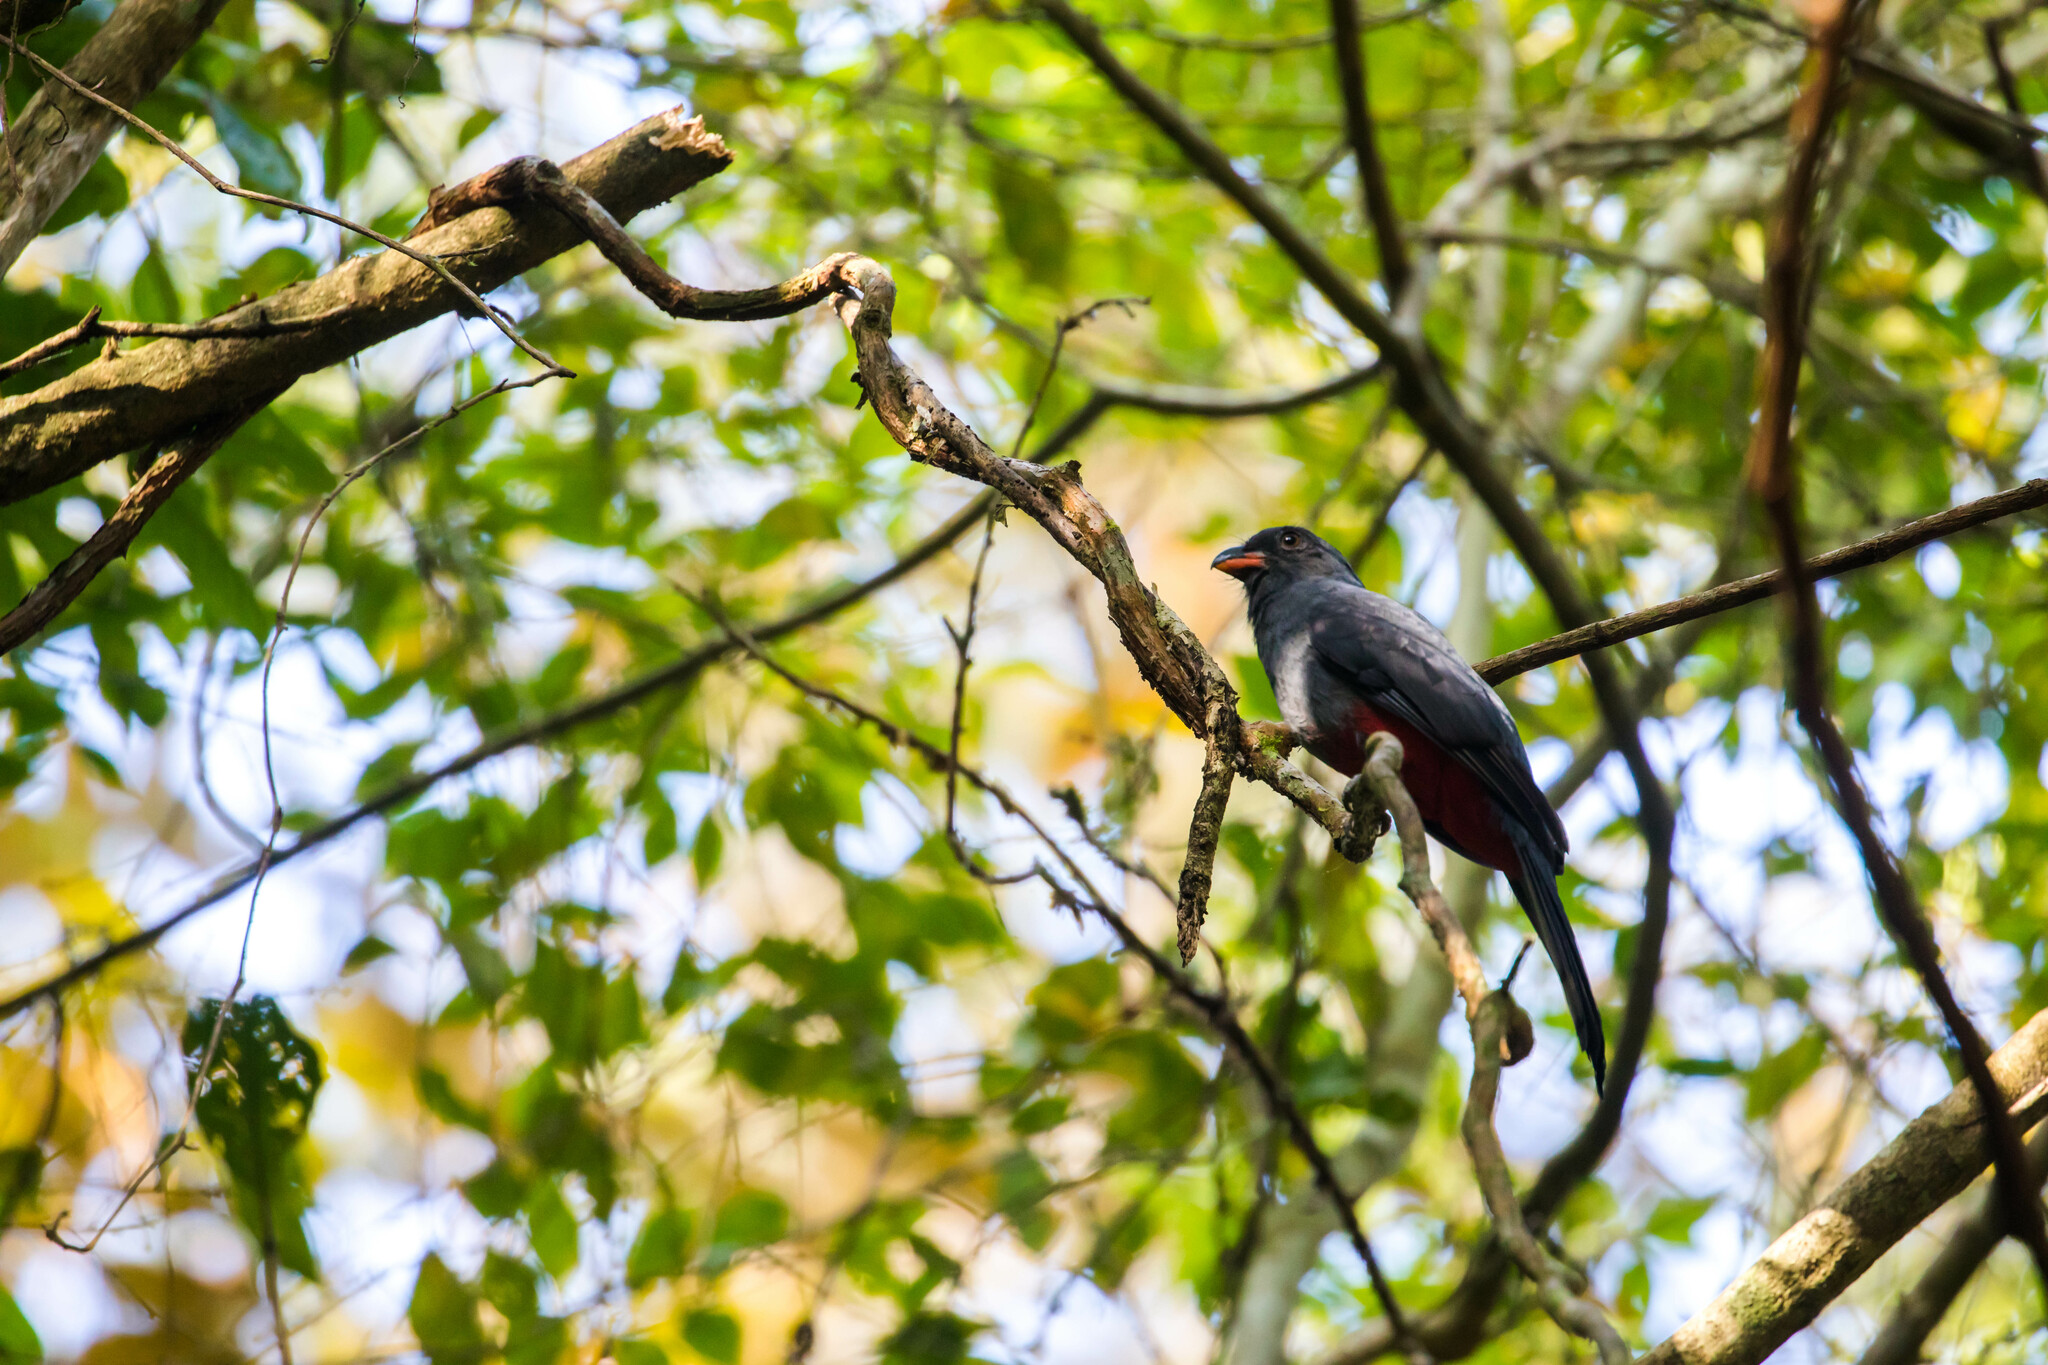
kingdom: Animalia
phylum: Chordata
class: Aves
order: Trogoniformes
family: Trogonidae
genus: Trogon
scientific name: Trogon massena
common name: Slaty-tailed trogon
